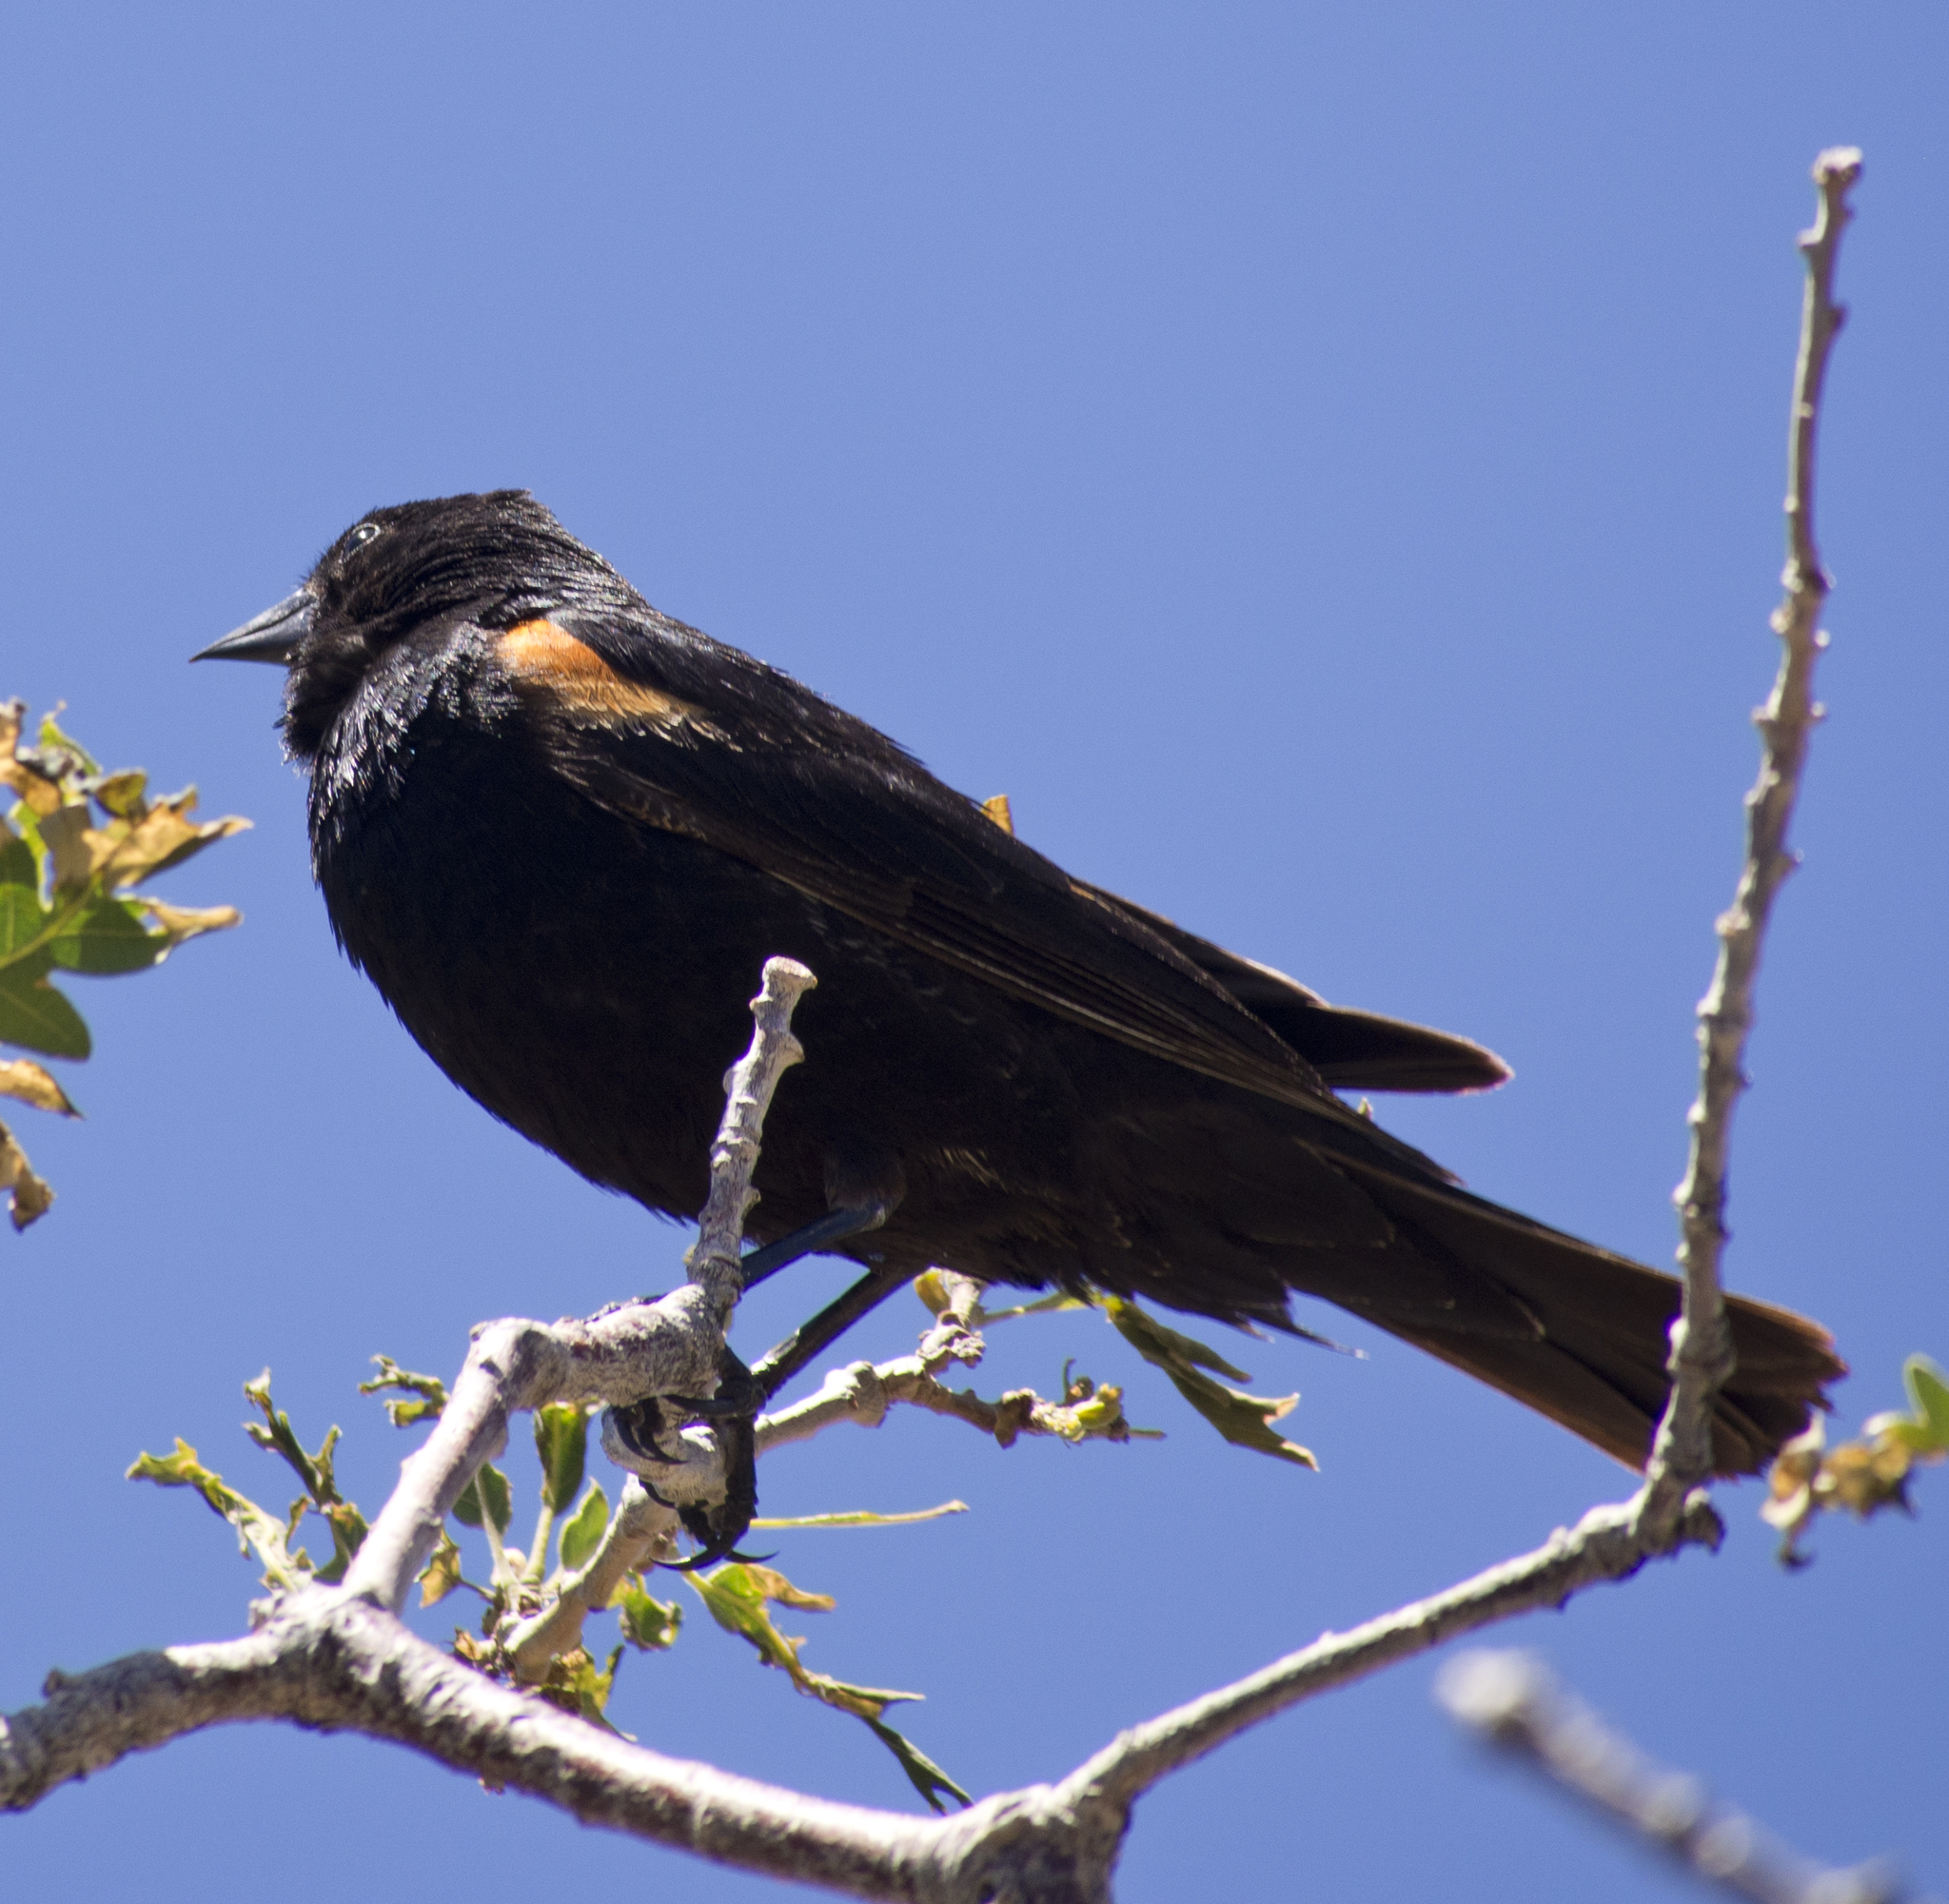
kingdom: Animalia
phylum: Chordata
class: Aves
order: Passeriformes
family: Icteridae
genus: Agelaius
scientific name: Agelaius phoeniceus
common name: Red-winged blackbird
